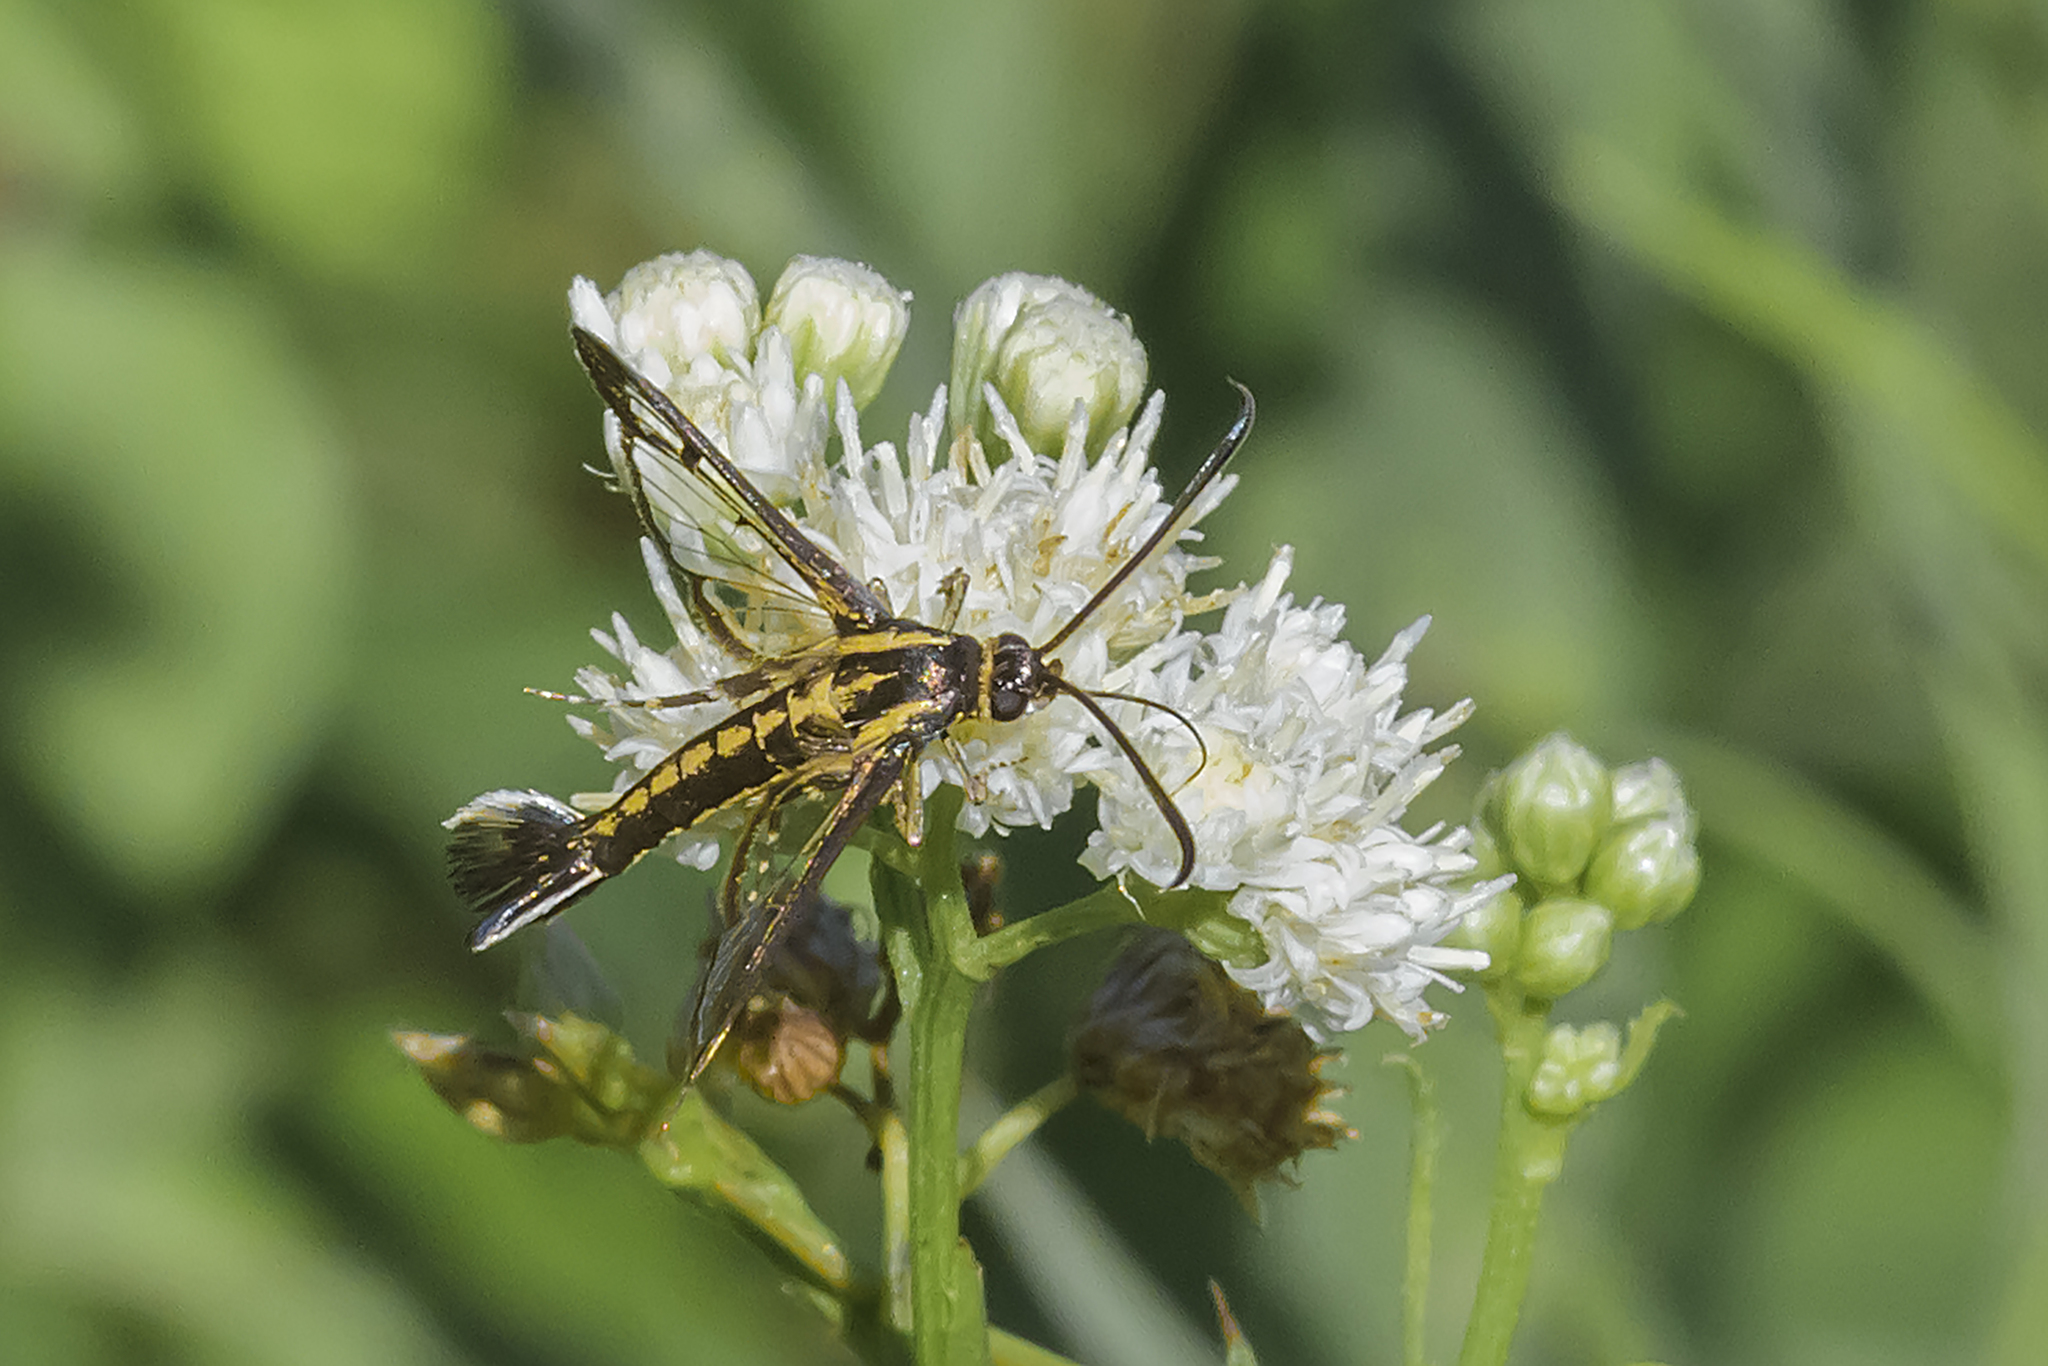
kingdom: Animalia
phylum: Arthropoda
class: Insecta
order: Lepidoptera
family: Sesiidae
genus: Carmenta
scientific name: Carmenta wagneri
